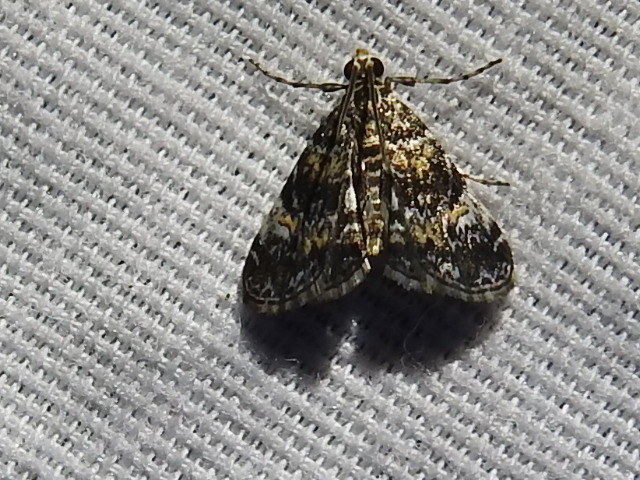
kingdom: Animalia
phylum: Arthropoda
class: Insecta
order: Lepidoptera
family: Crambidae
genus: Elophila
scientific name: Elophila obliteralis
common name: Waterlily leafcutter moth
